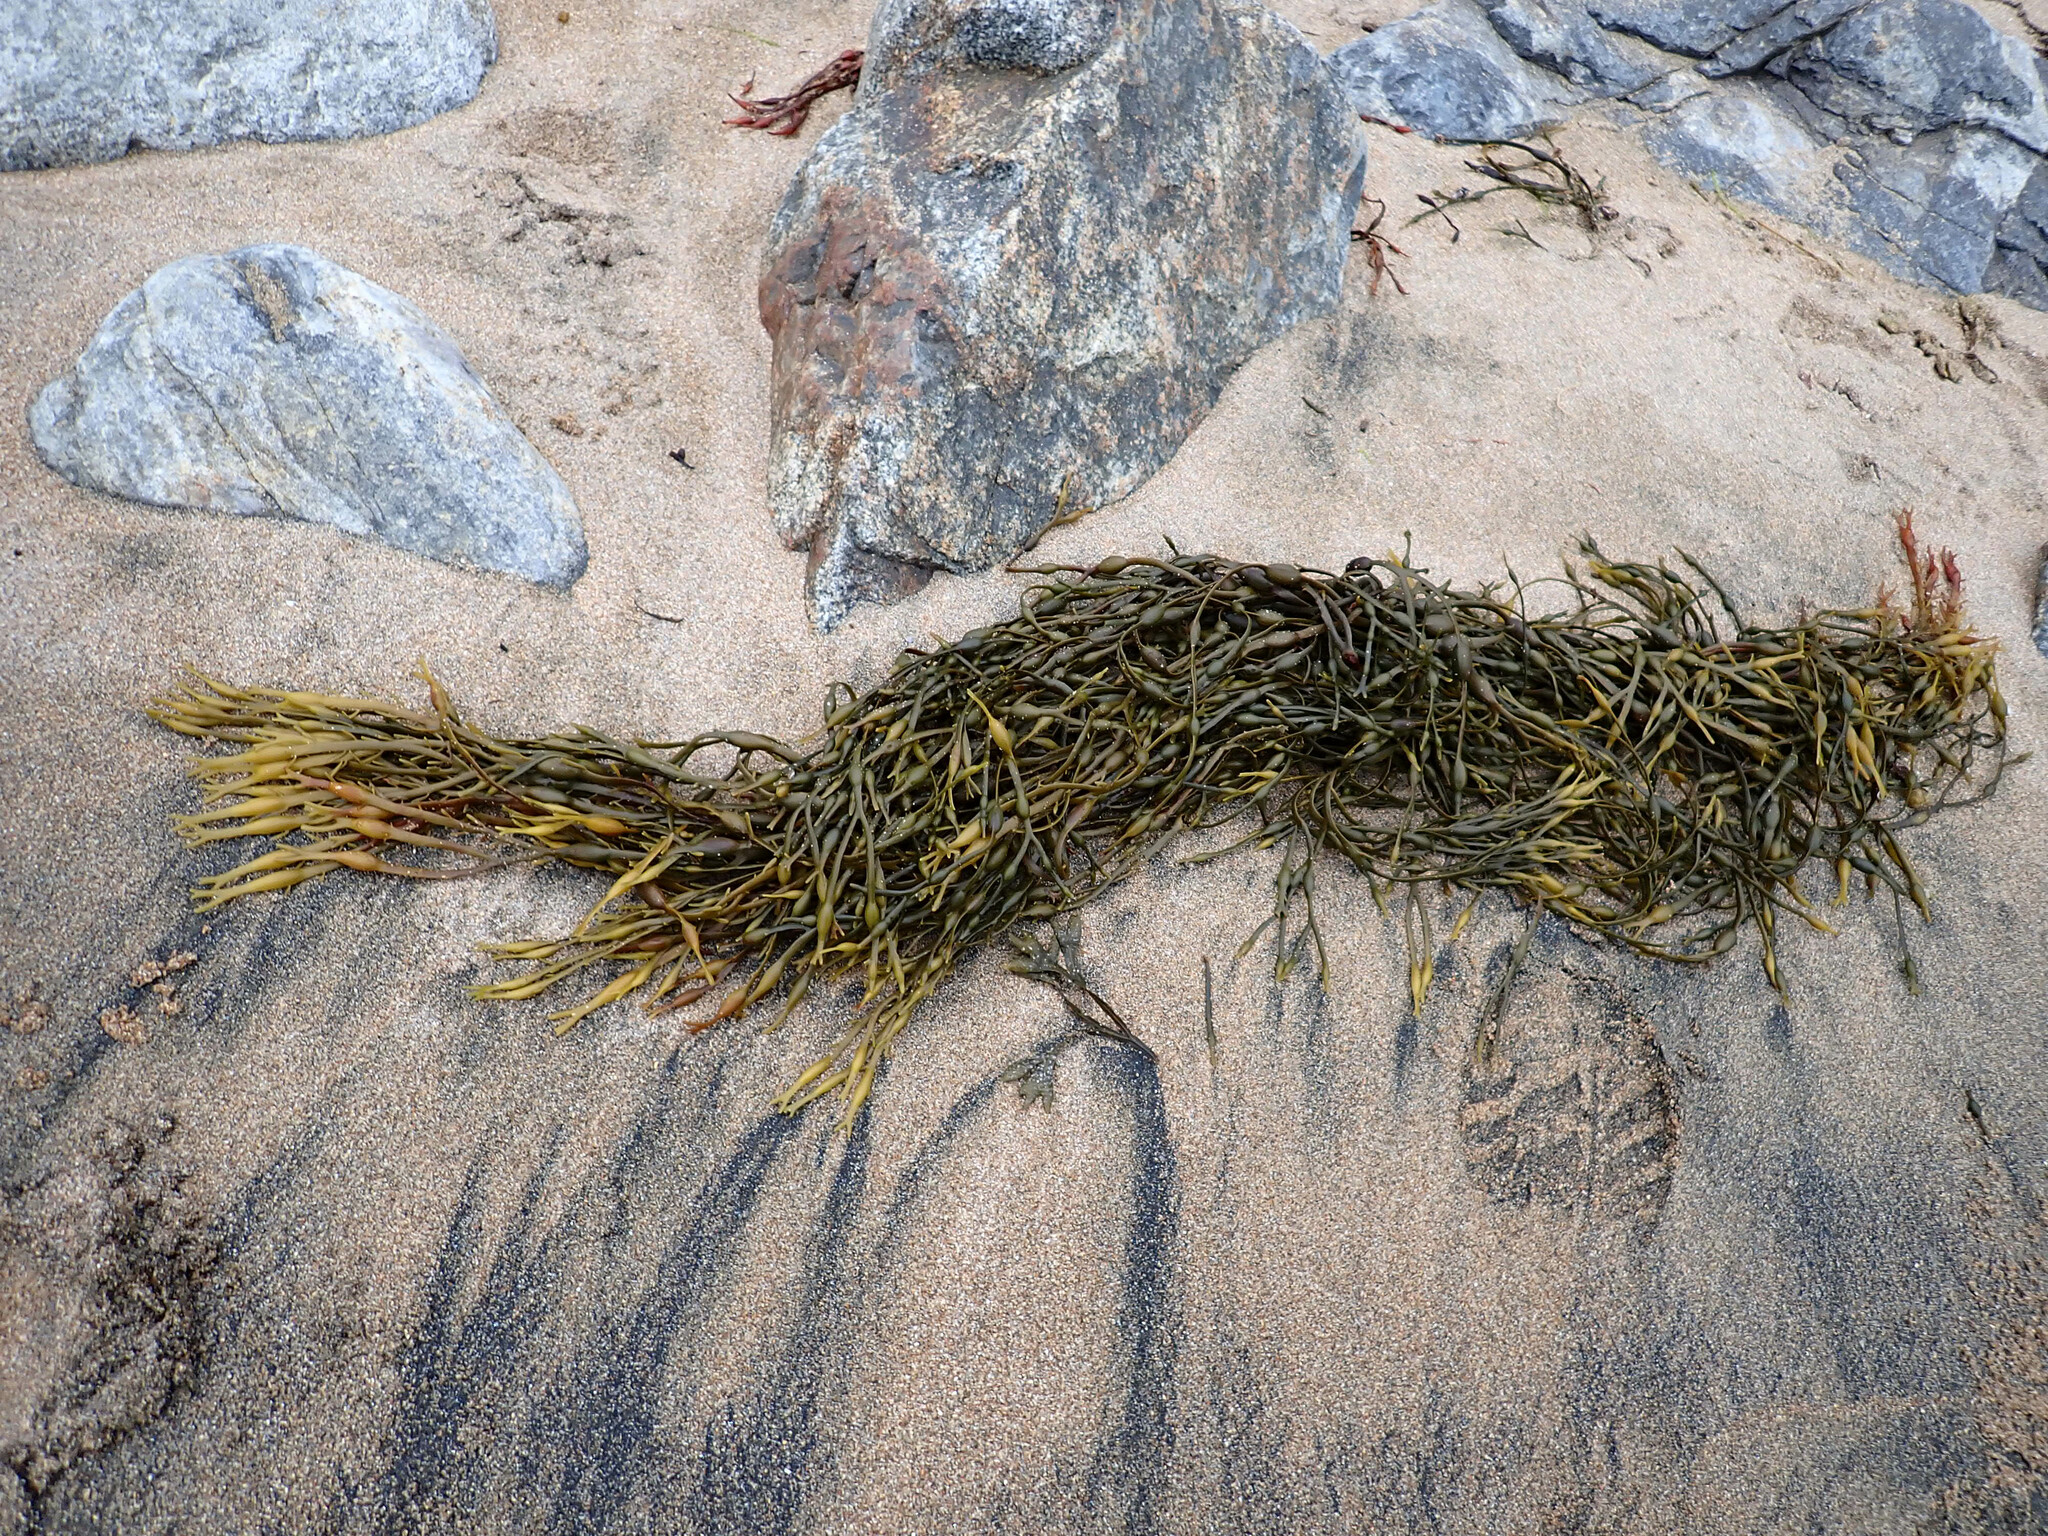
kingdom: Chromista
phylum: Ochrophyta
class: Phaeophyceae
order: Fucales
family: Fucaceae
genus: Ascophyllum
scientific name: Ascophyllum nodosum
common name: Knotted wrack
